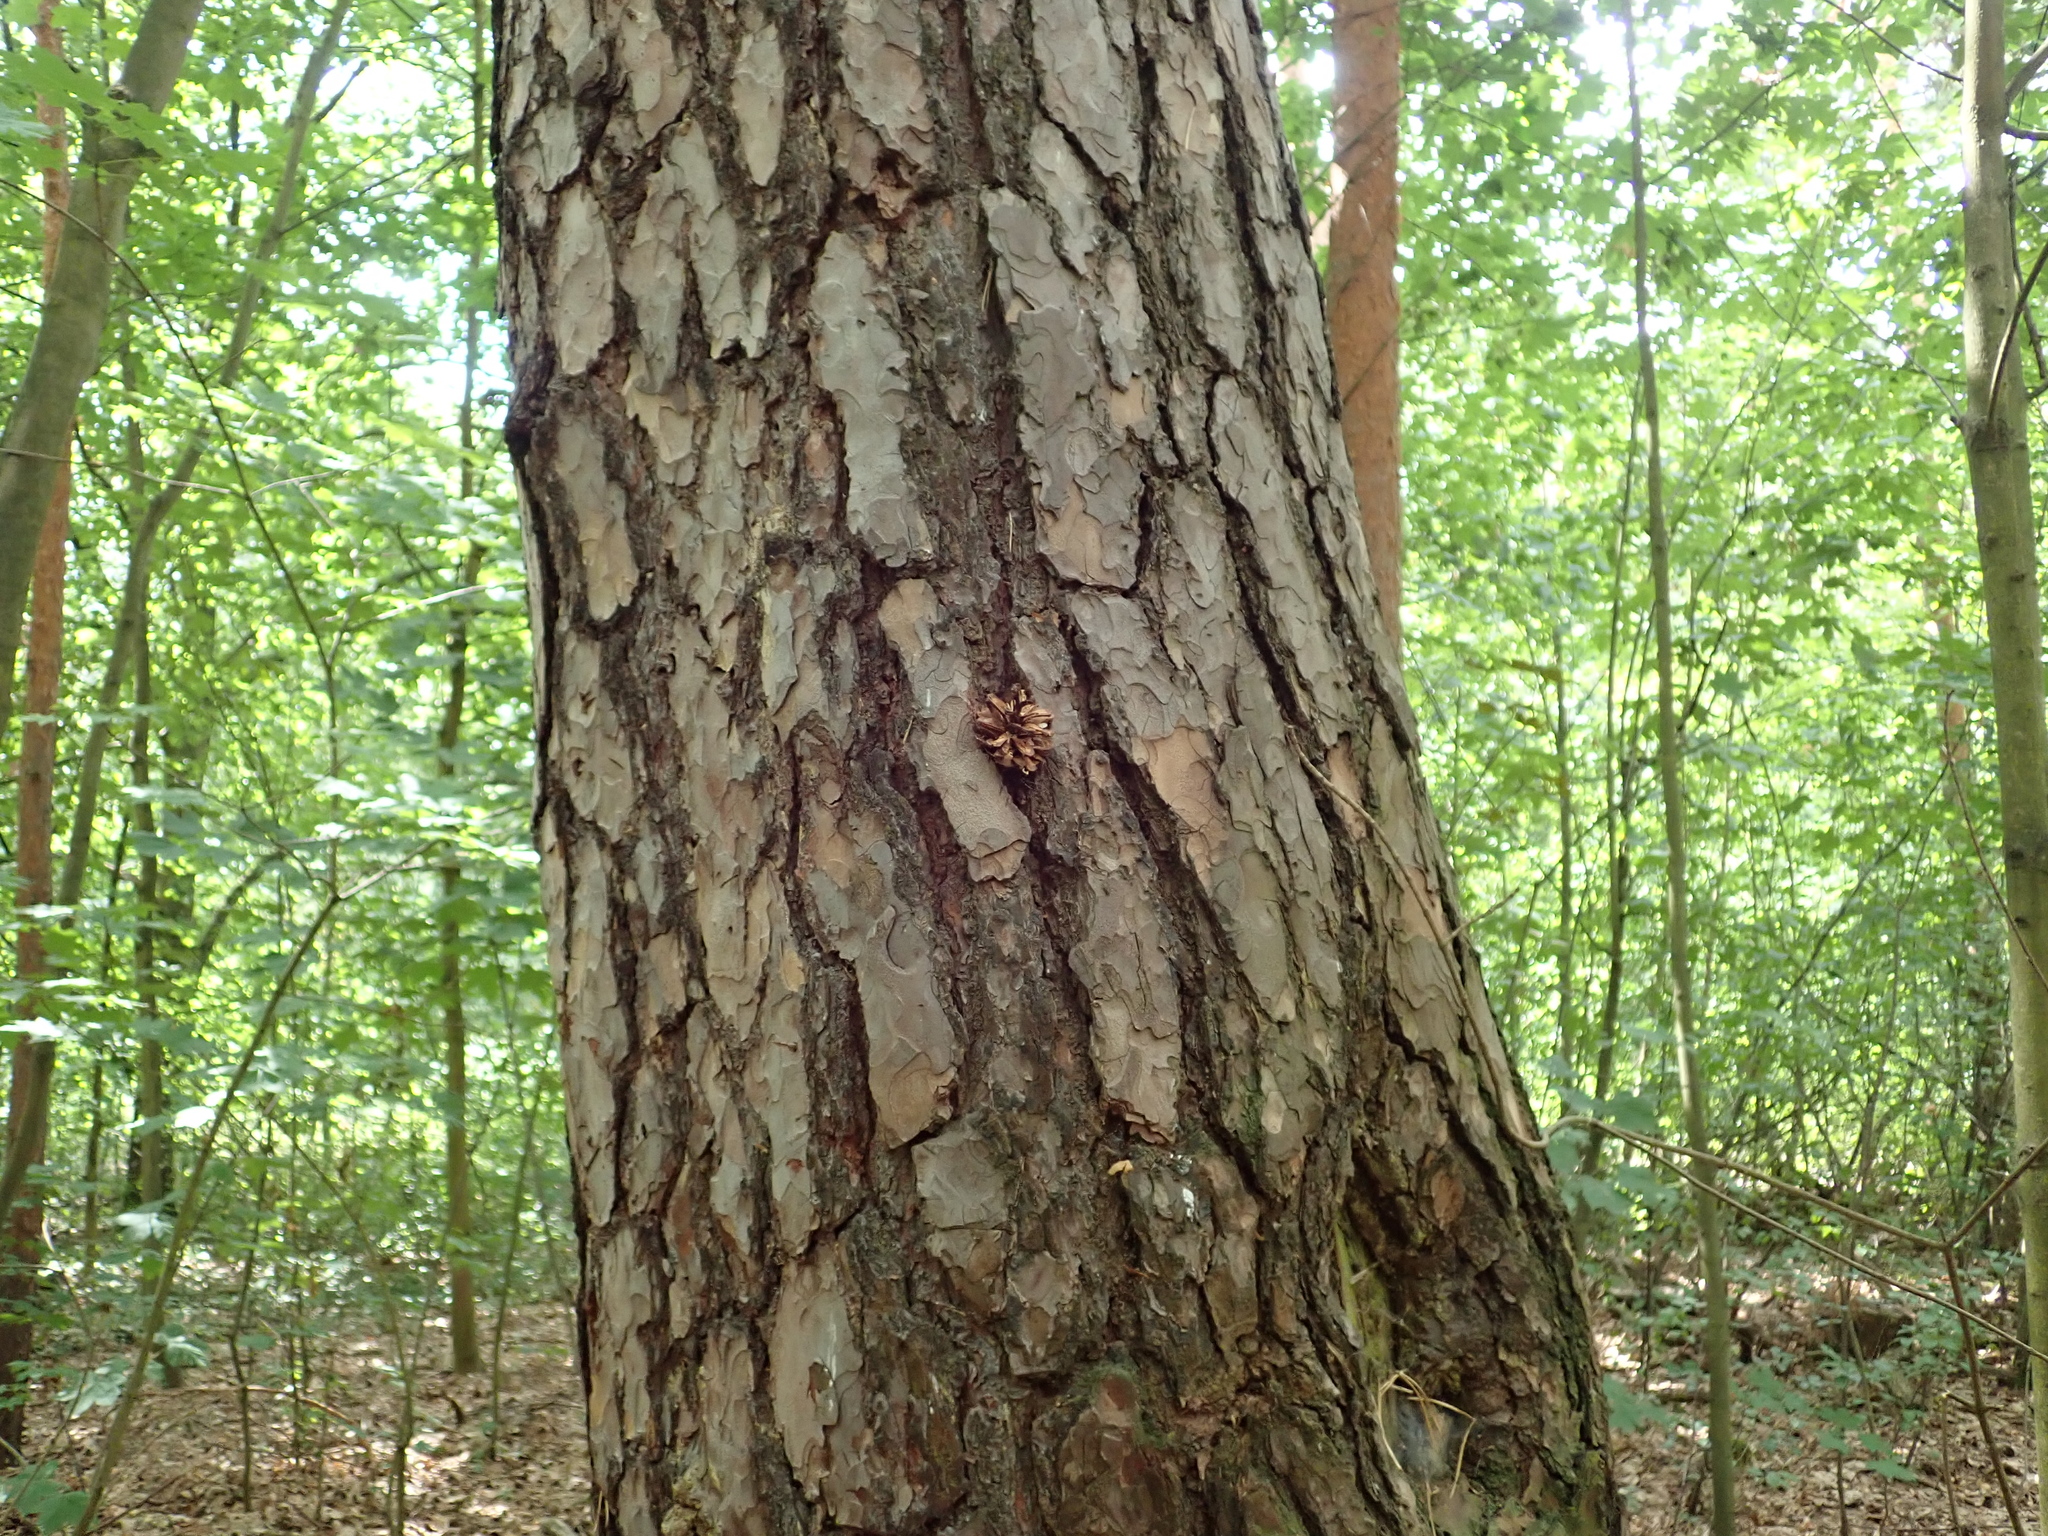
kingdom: Plantae
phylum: Tracheophyta
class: Pinopsida
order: Pinales
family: Pinaceae
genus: Pinus
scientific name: Pinus sylvestris
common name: Scots pine
